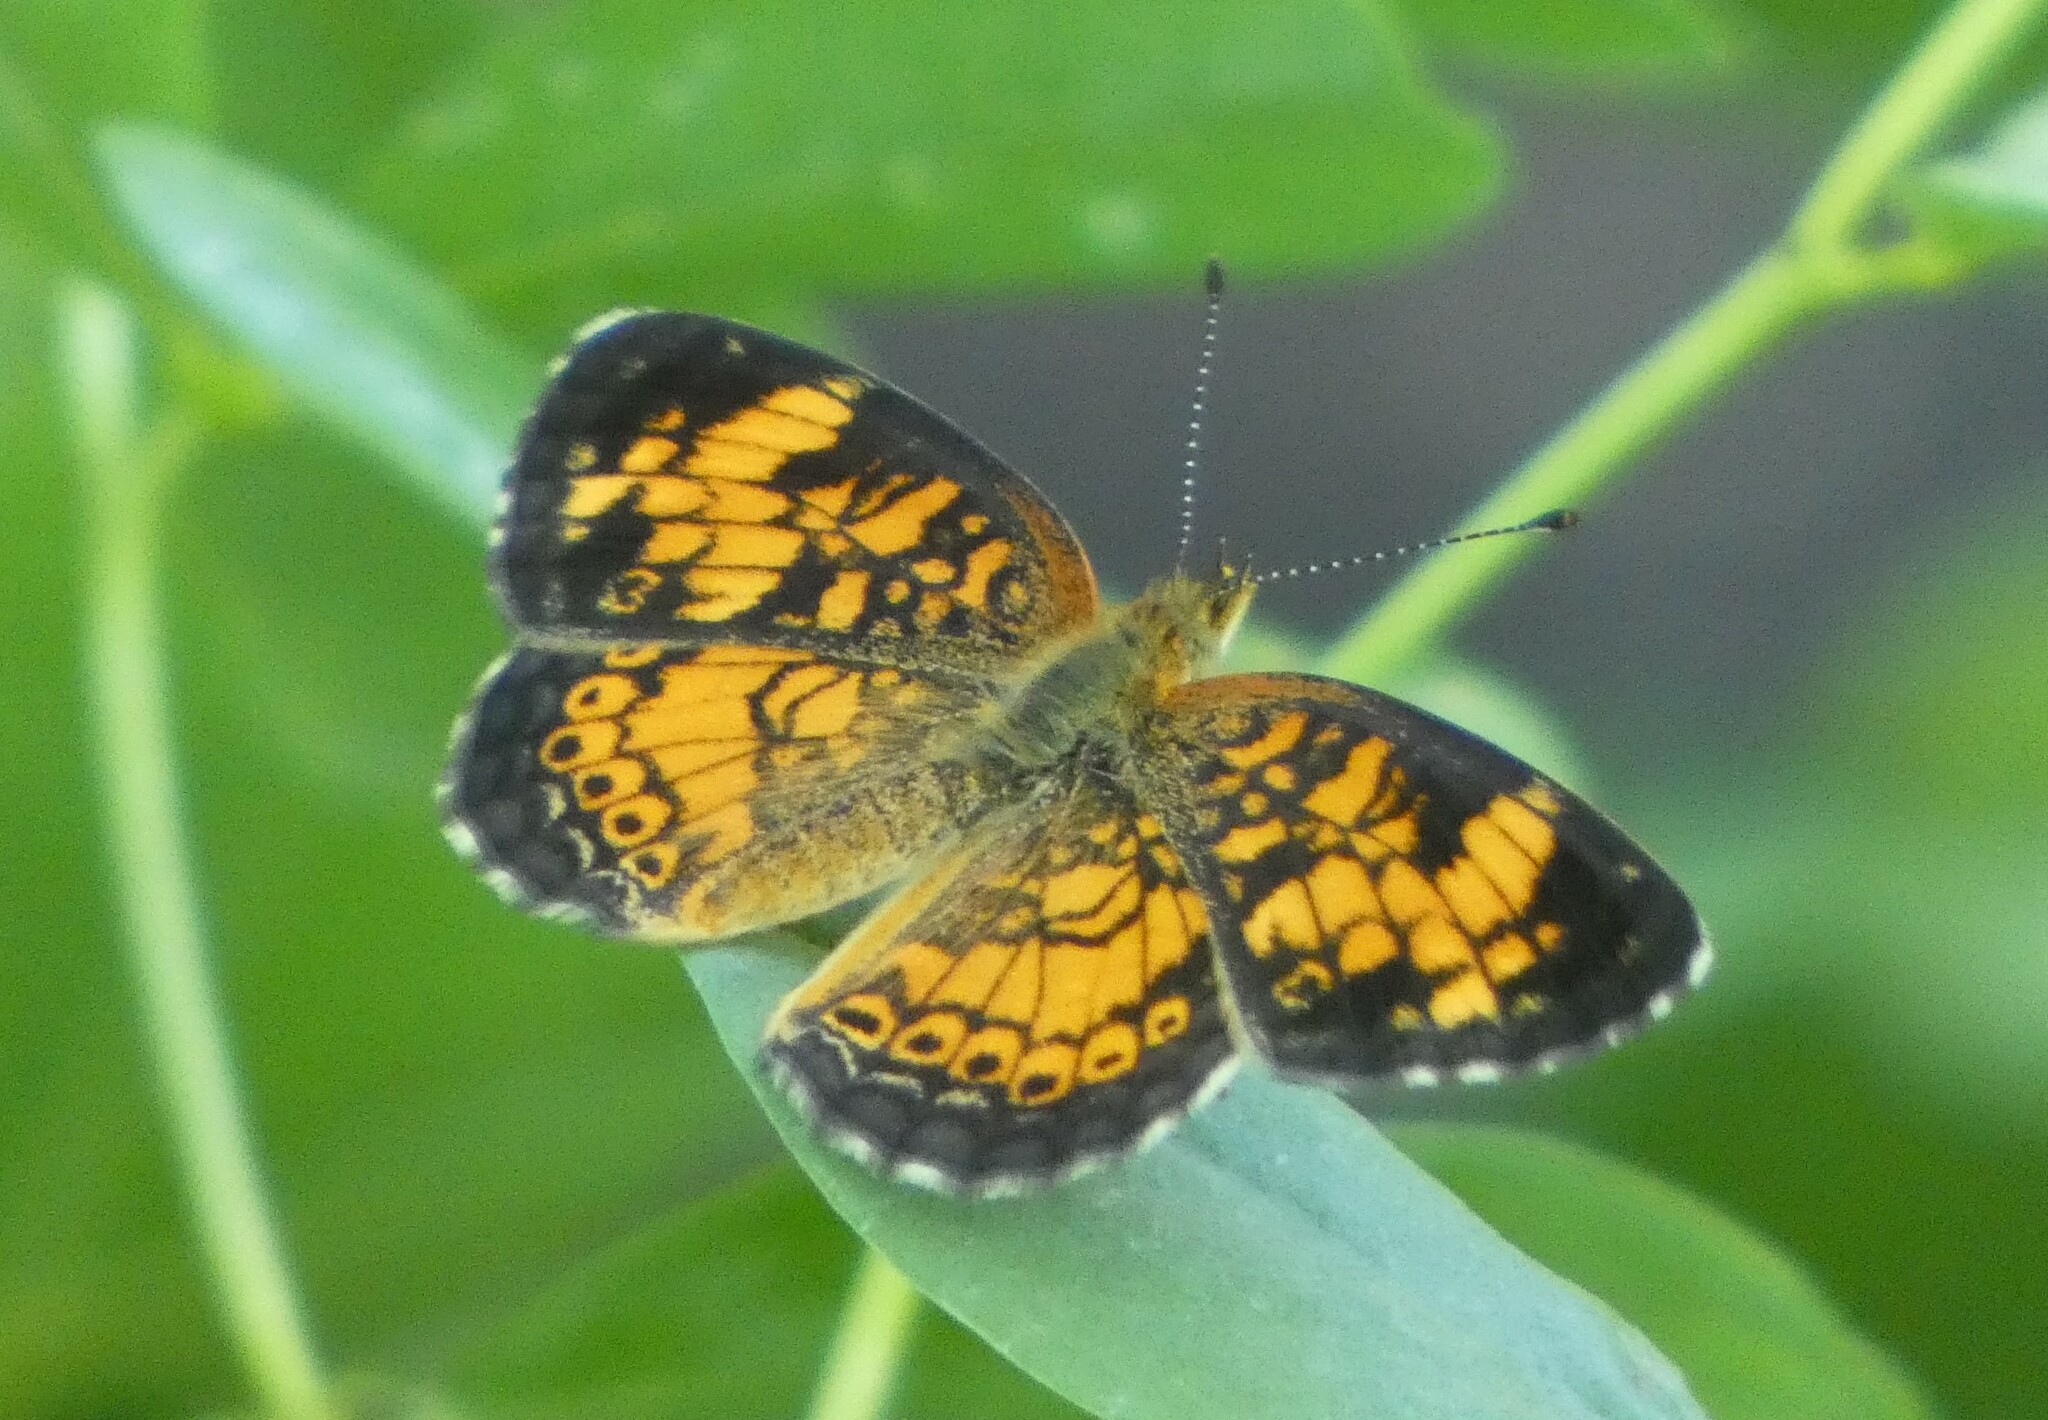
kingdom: Animalia
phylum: Arthropoda
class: Insecta
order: Lepidoptera
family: Nymphalidae
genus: Phyciodes
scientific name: Phyciodes tharos
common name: Pearl crescent
